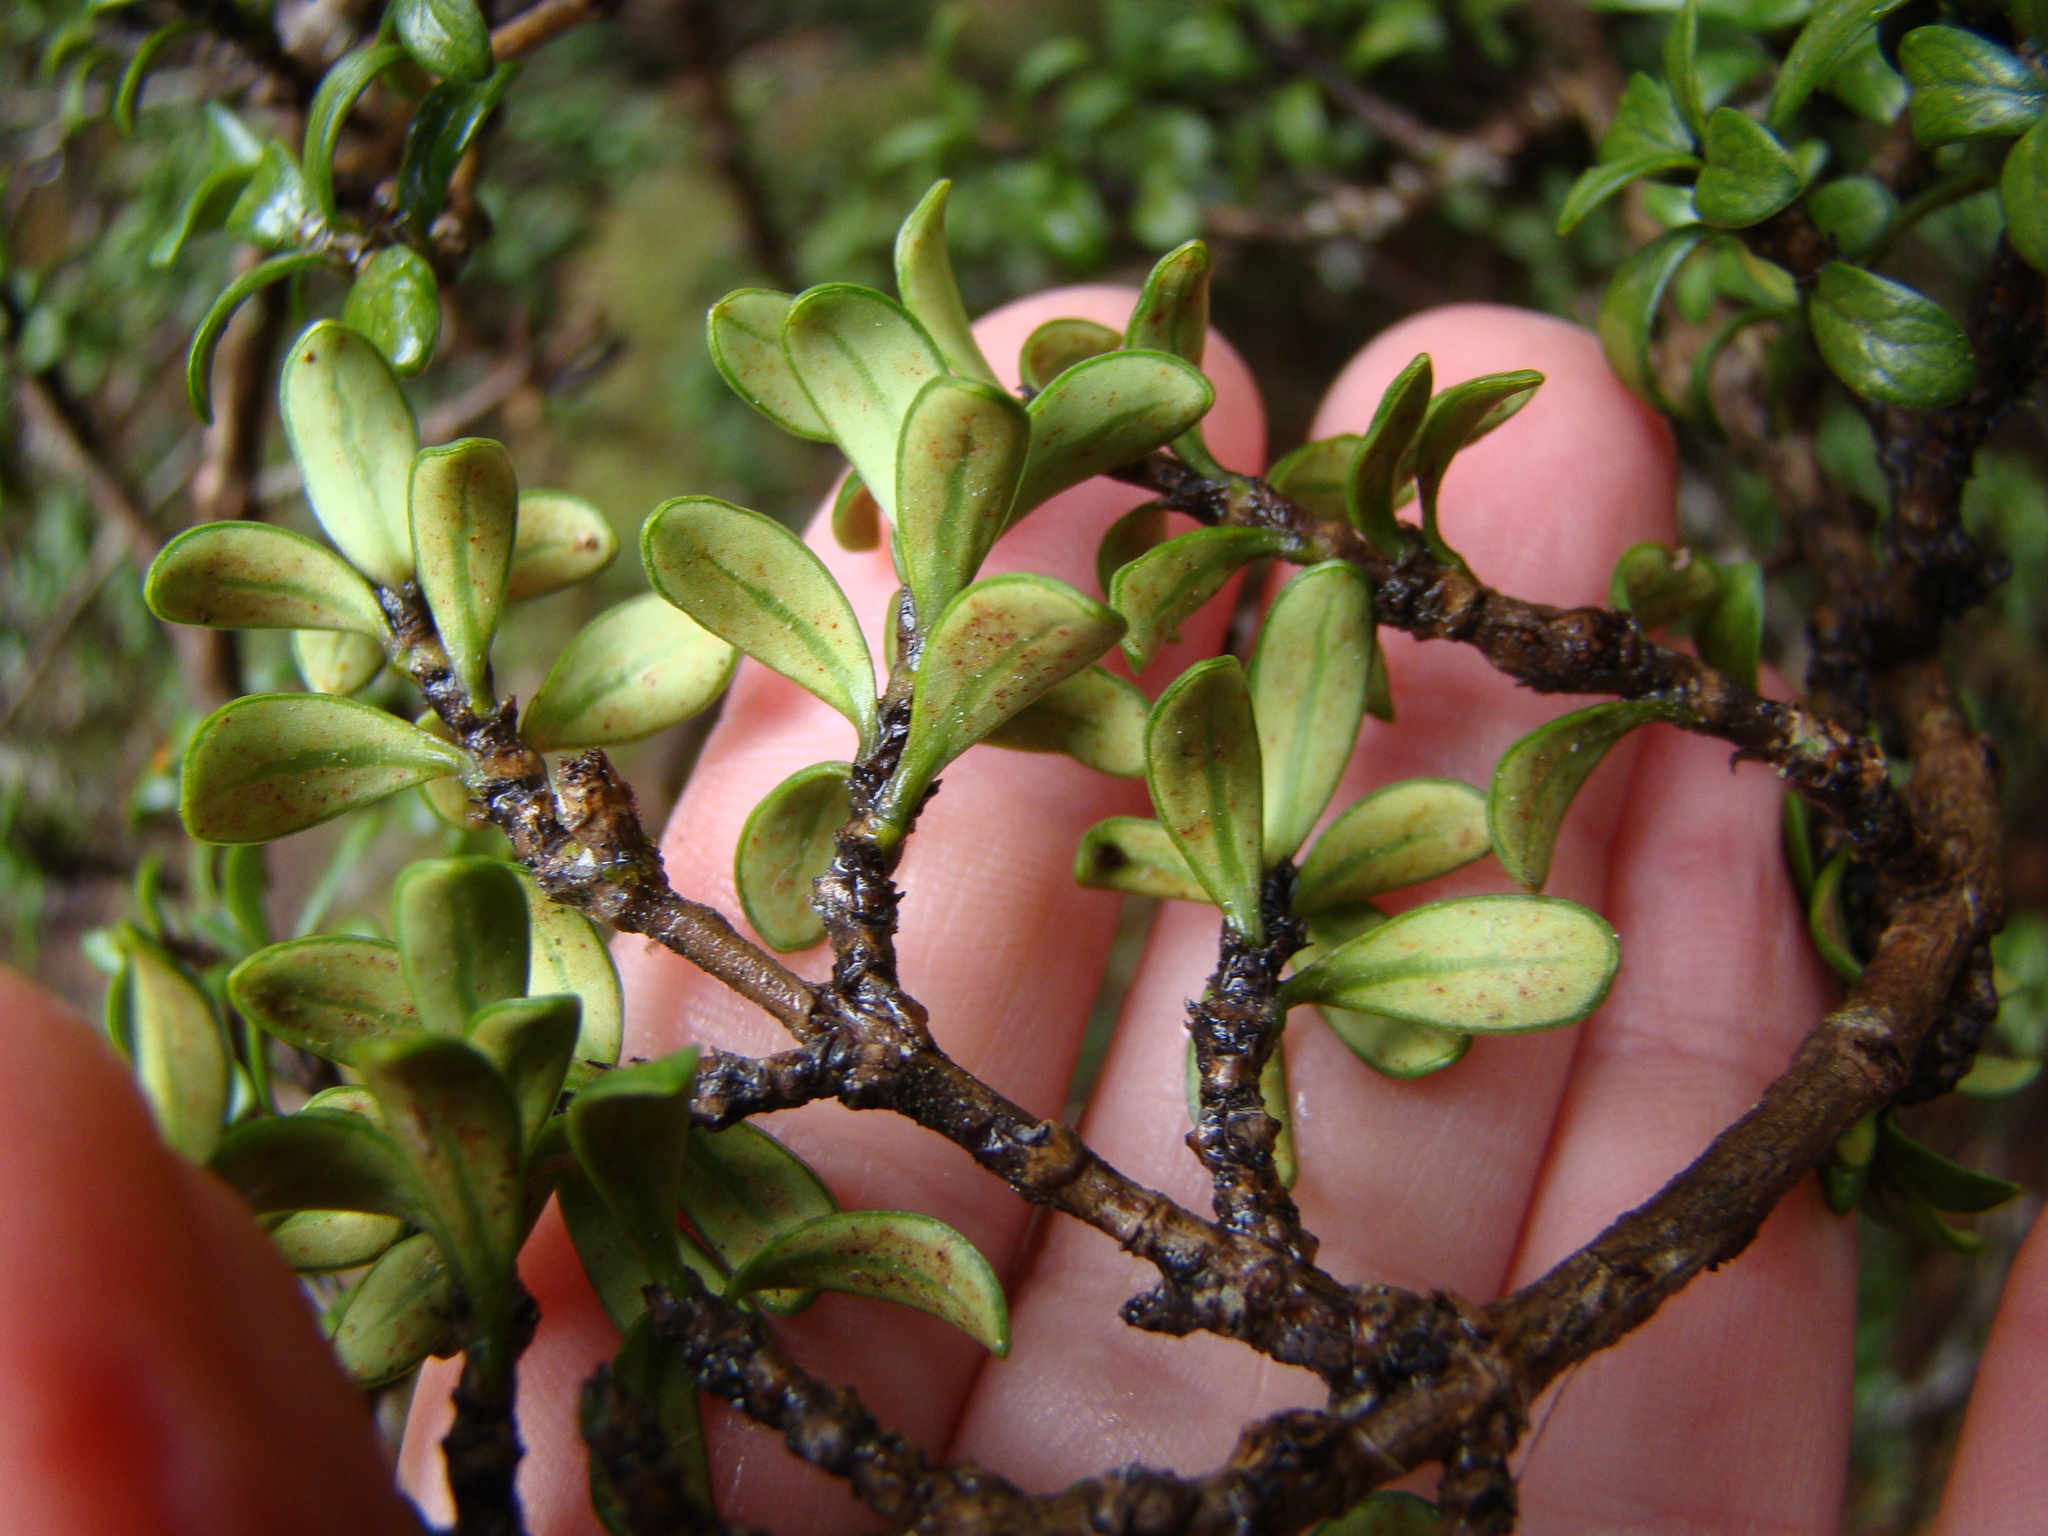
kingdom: Plantae
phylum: Tracheophyta
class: Magnoliopsida
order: Gentianales
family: Rubiaceae
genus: Coprosma
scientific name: Coprosma pseudocuneata
